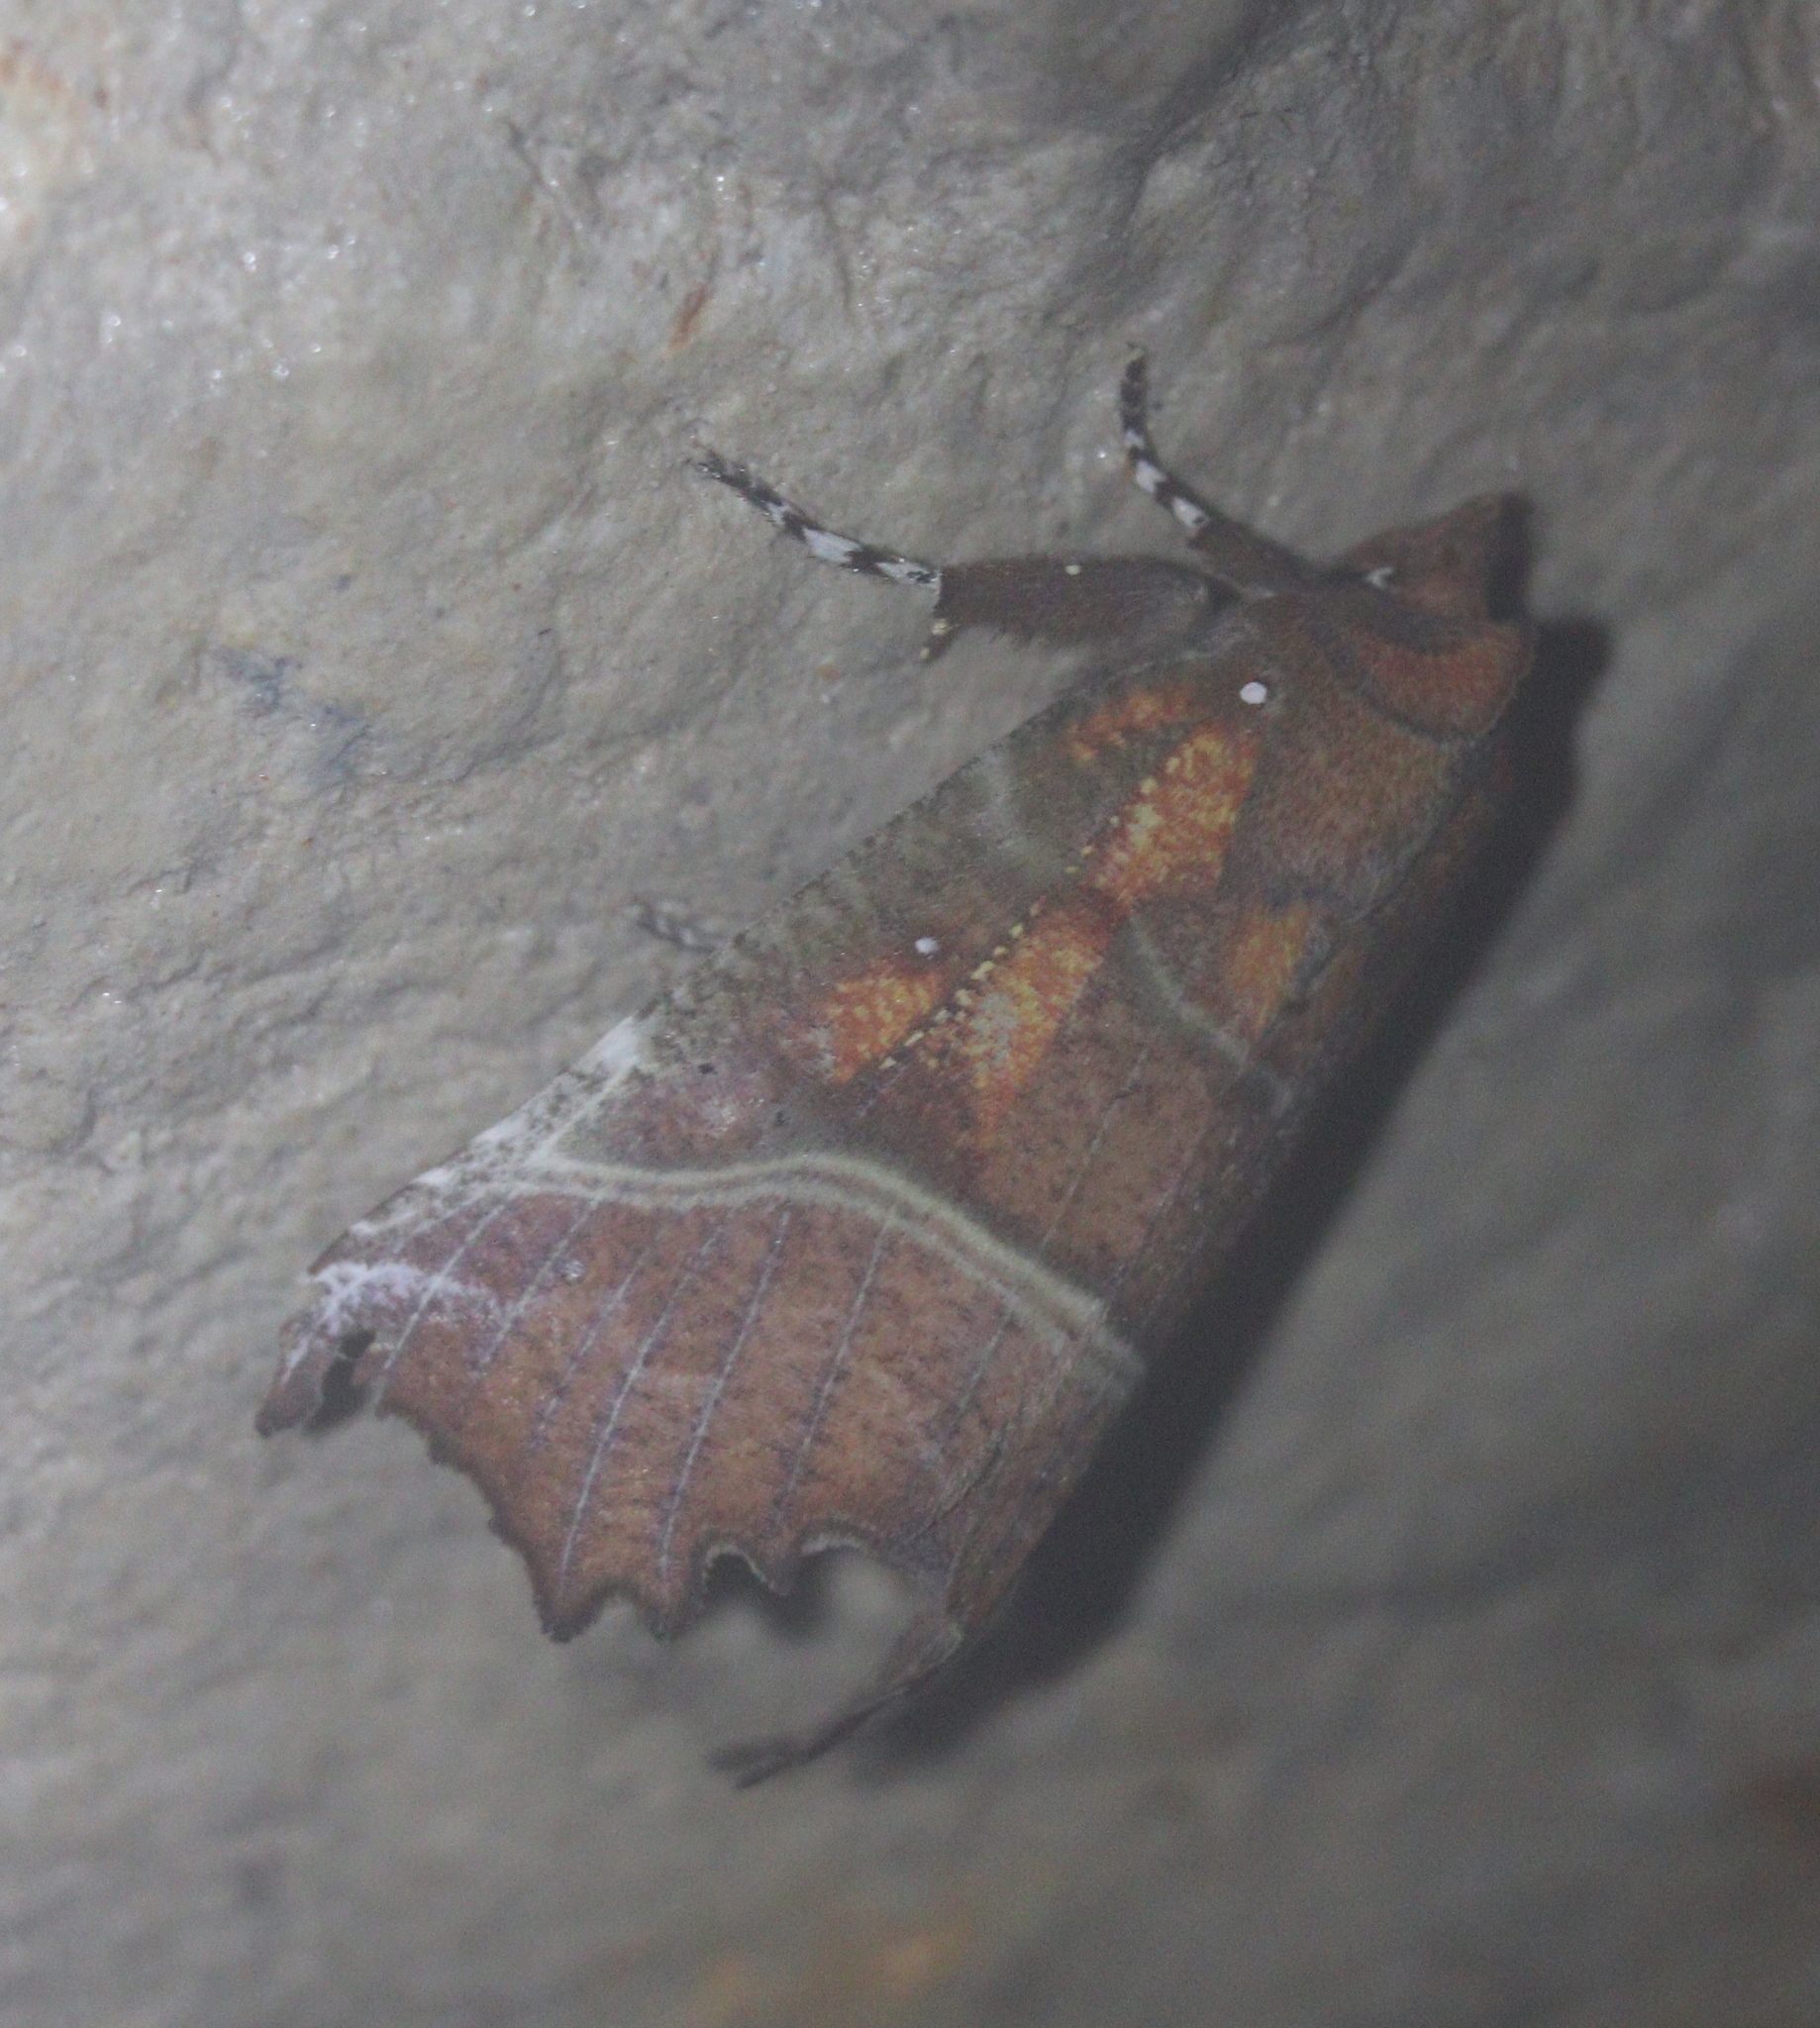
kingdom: Animalia
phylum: Arthropoda
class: Insecta
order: Lepidoptera
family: Erebidae
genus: Scoliopteryx
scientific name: Scoliopteryx libatrix
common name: Herald
